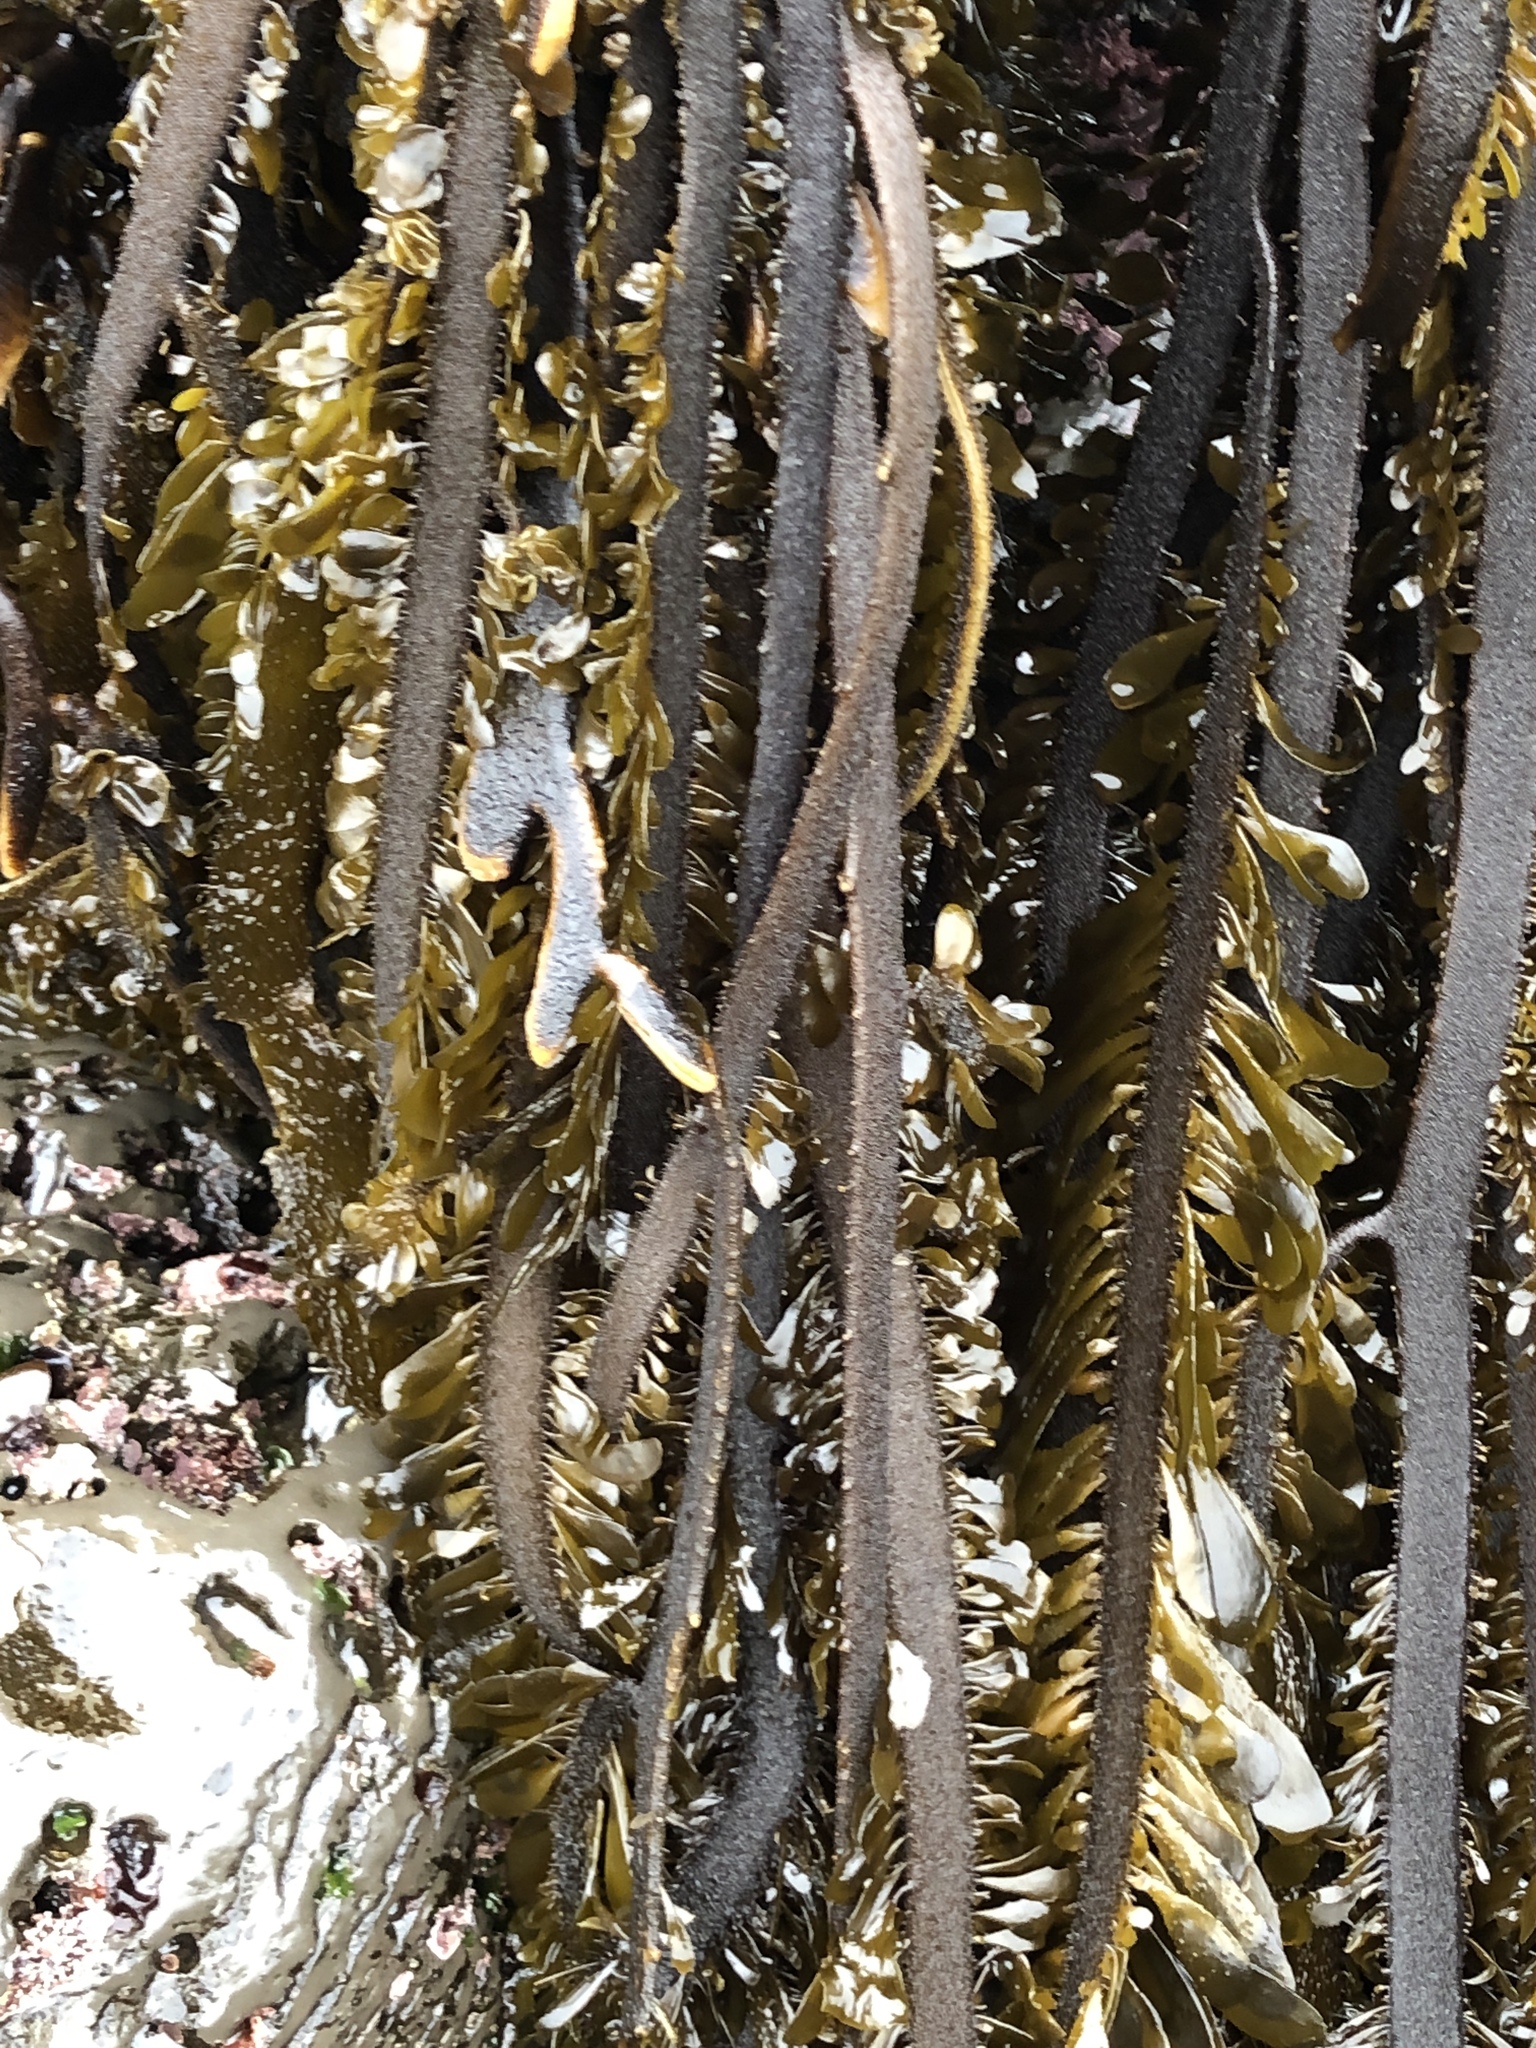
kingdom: Chromista
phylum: Ochrophyta
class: Phaeophyceae
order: Laminariales
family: Lessoniaceae
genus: Egregia
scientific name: Egregia menziesii
